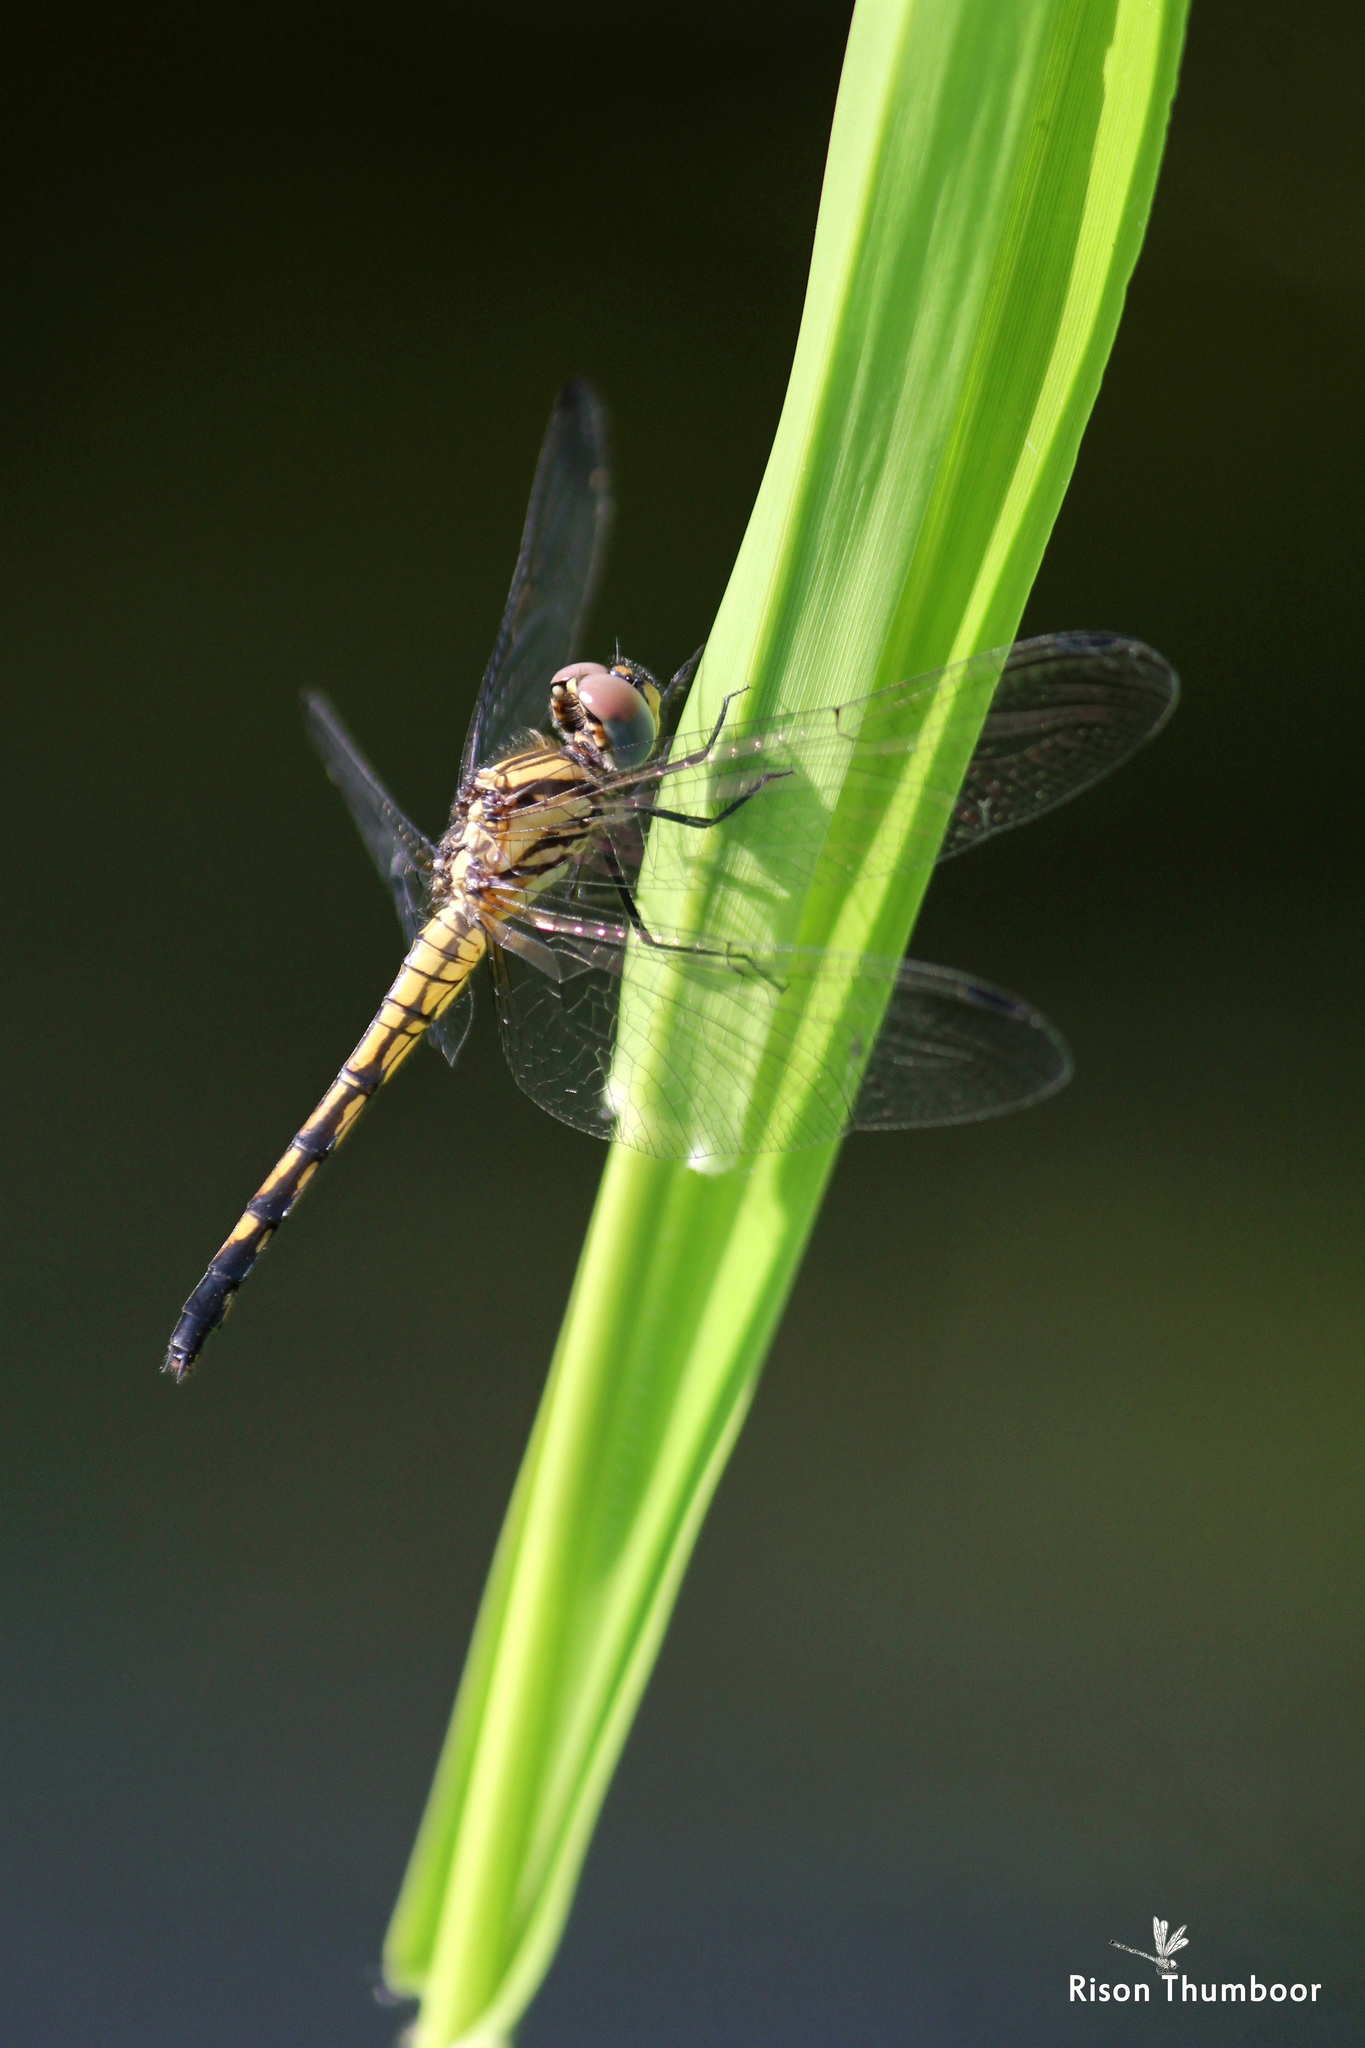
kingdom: Animalia
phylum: Arthropoda
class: Insecta
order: Odonata
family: Libellulidae
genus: Trithemis
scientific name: Trithemis festiva
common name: Indigo dropwing
